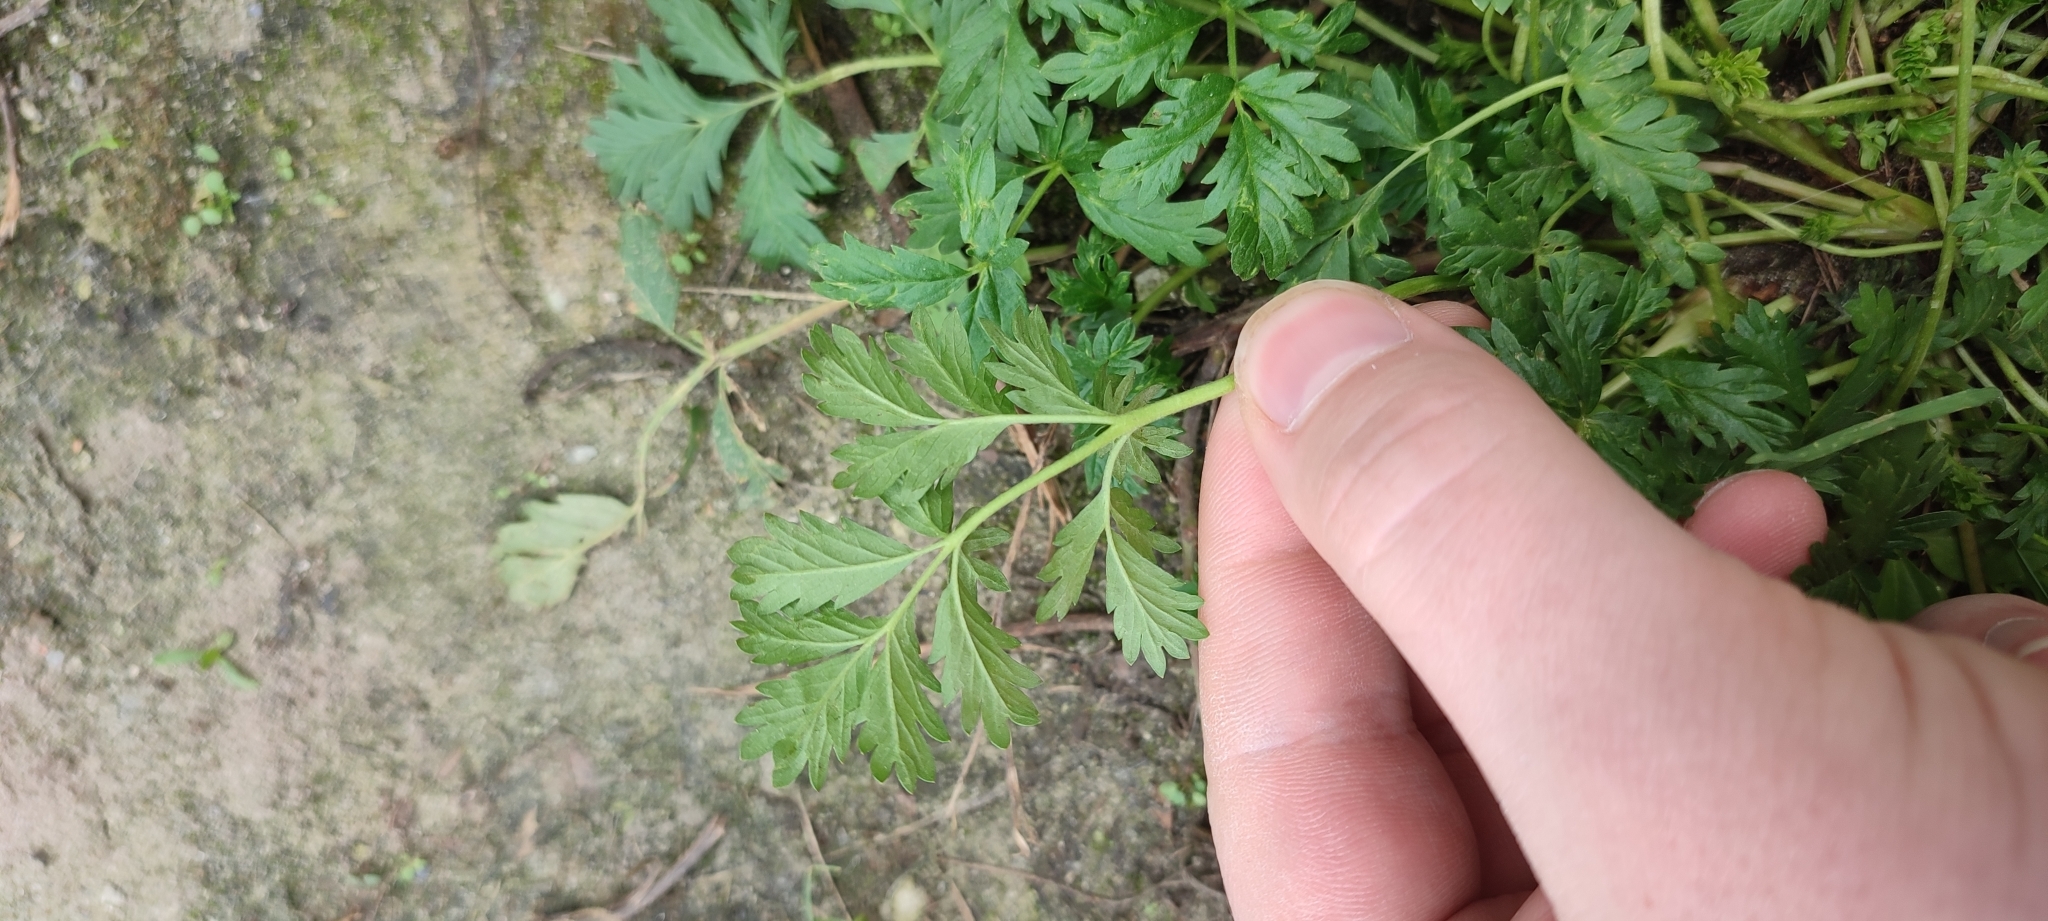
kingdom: Plantae
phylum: Tracheophyta
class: Magnoliopsida
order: Rosales
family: Rosaceae
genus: Potentilla
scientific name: Potentilla tobolensis
